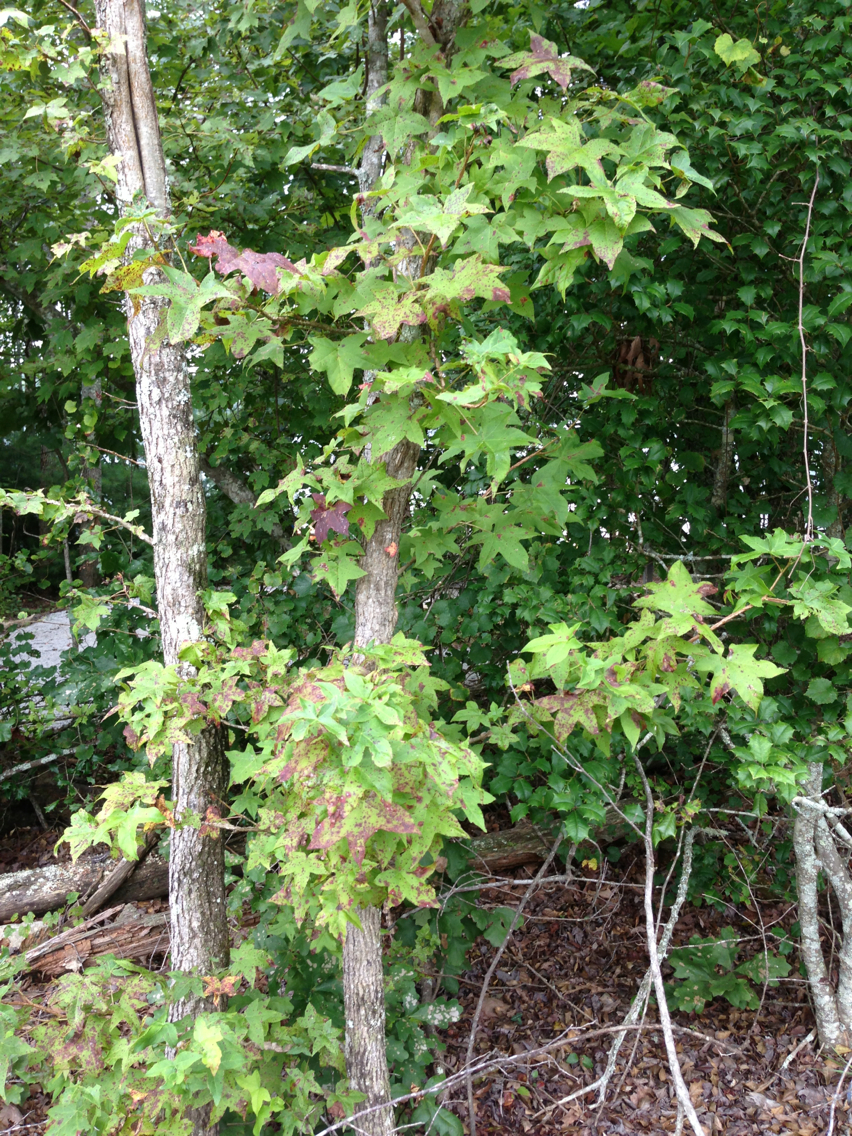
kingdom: Plantae
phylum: Tracheophyta
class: Magnoliopsida
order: Saxifragales
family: Altingiaceae
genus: Liquidambar
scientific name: Liquidambar styraciflua
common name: Sweet gum
